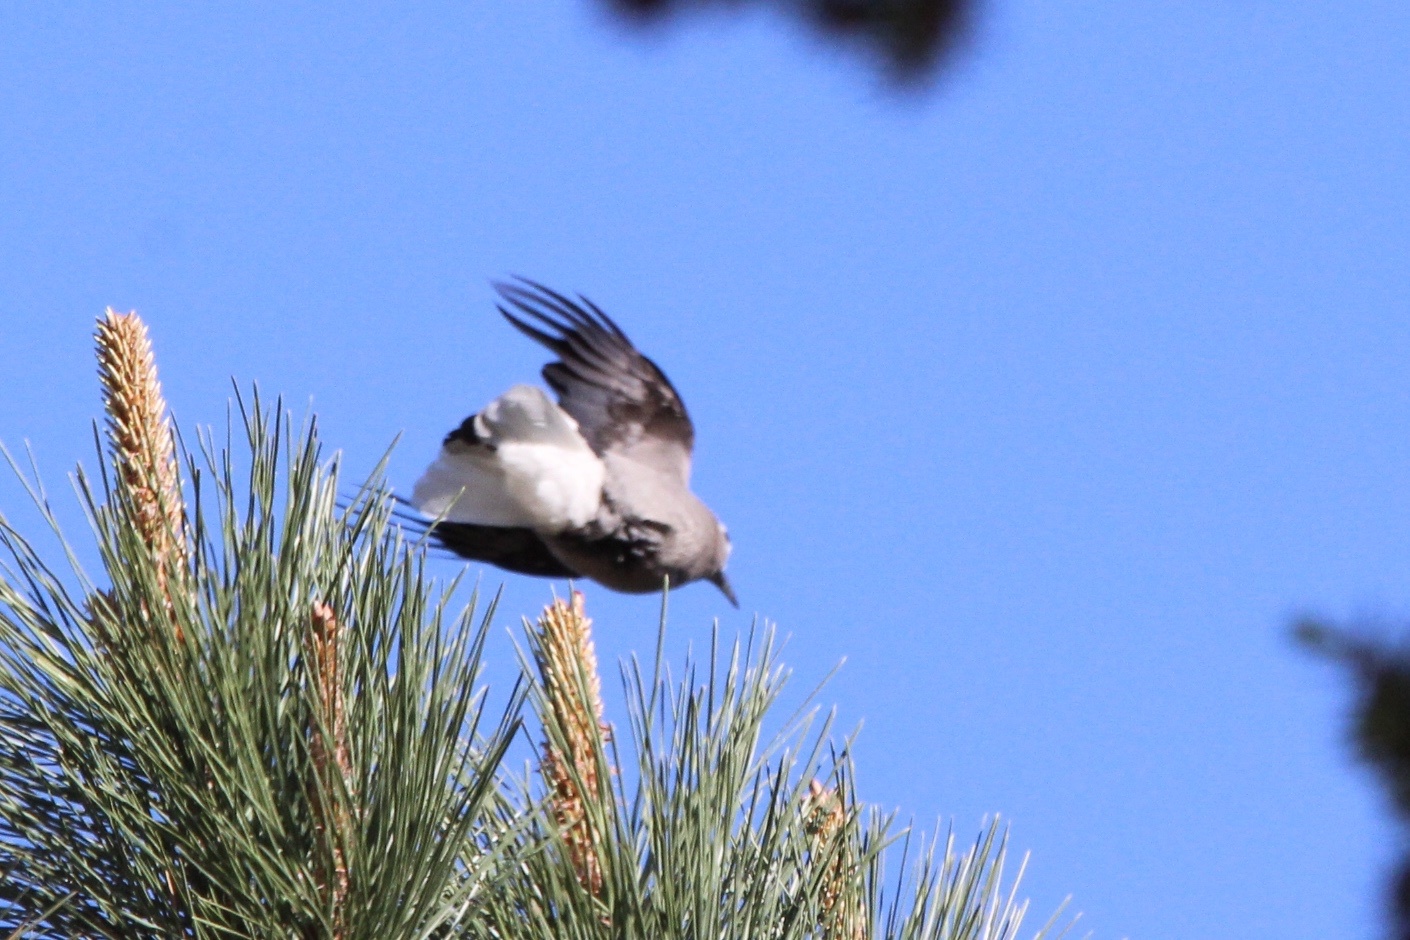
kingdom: Animalia
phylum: Chordata
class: Aves
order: Passeriformes
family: Corvidae
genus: Nucifraga
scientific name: Nucifraga columbiana
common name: Clark's nutcracker
